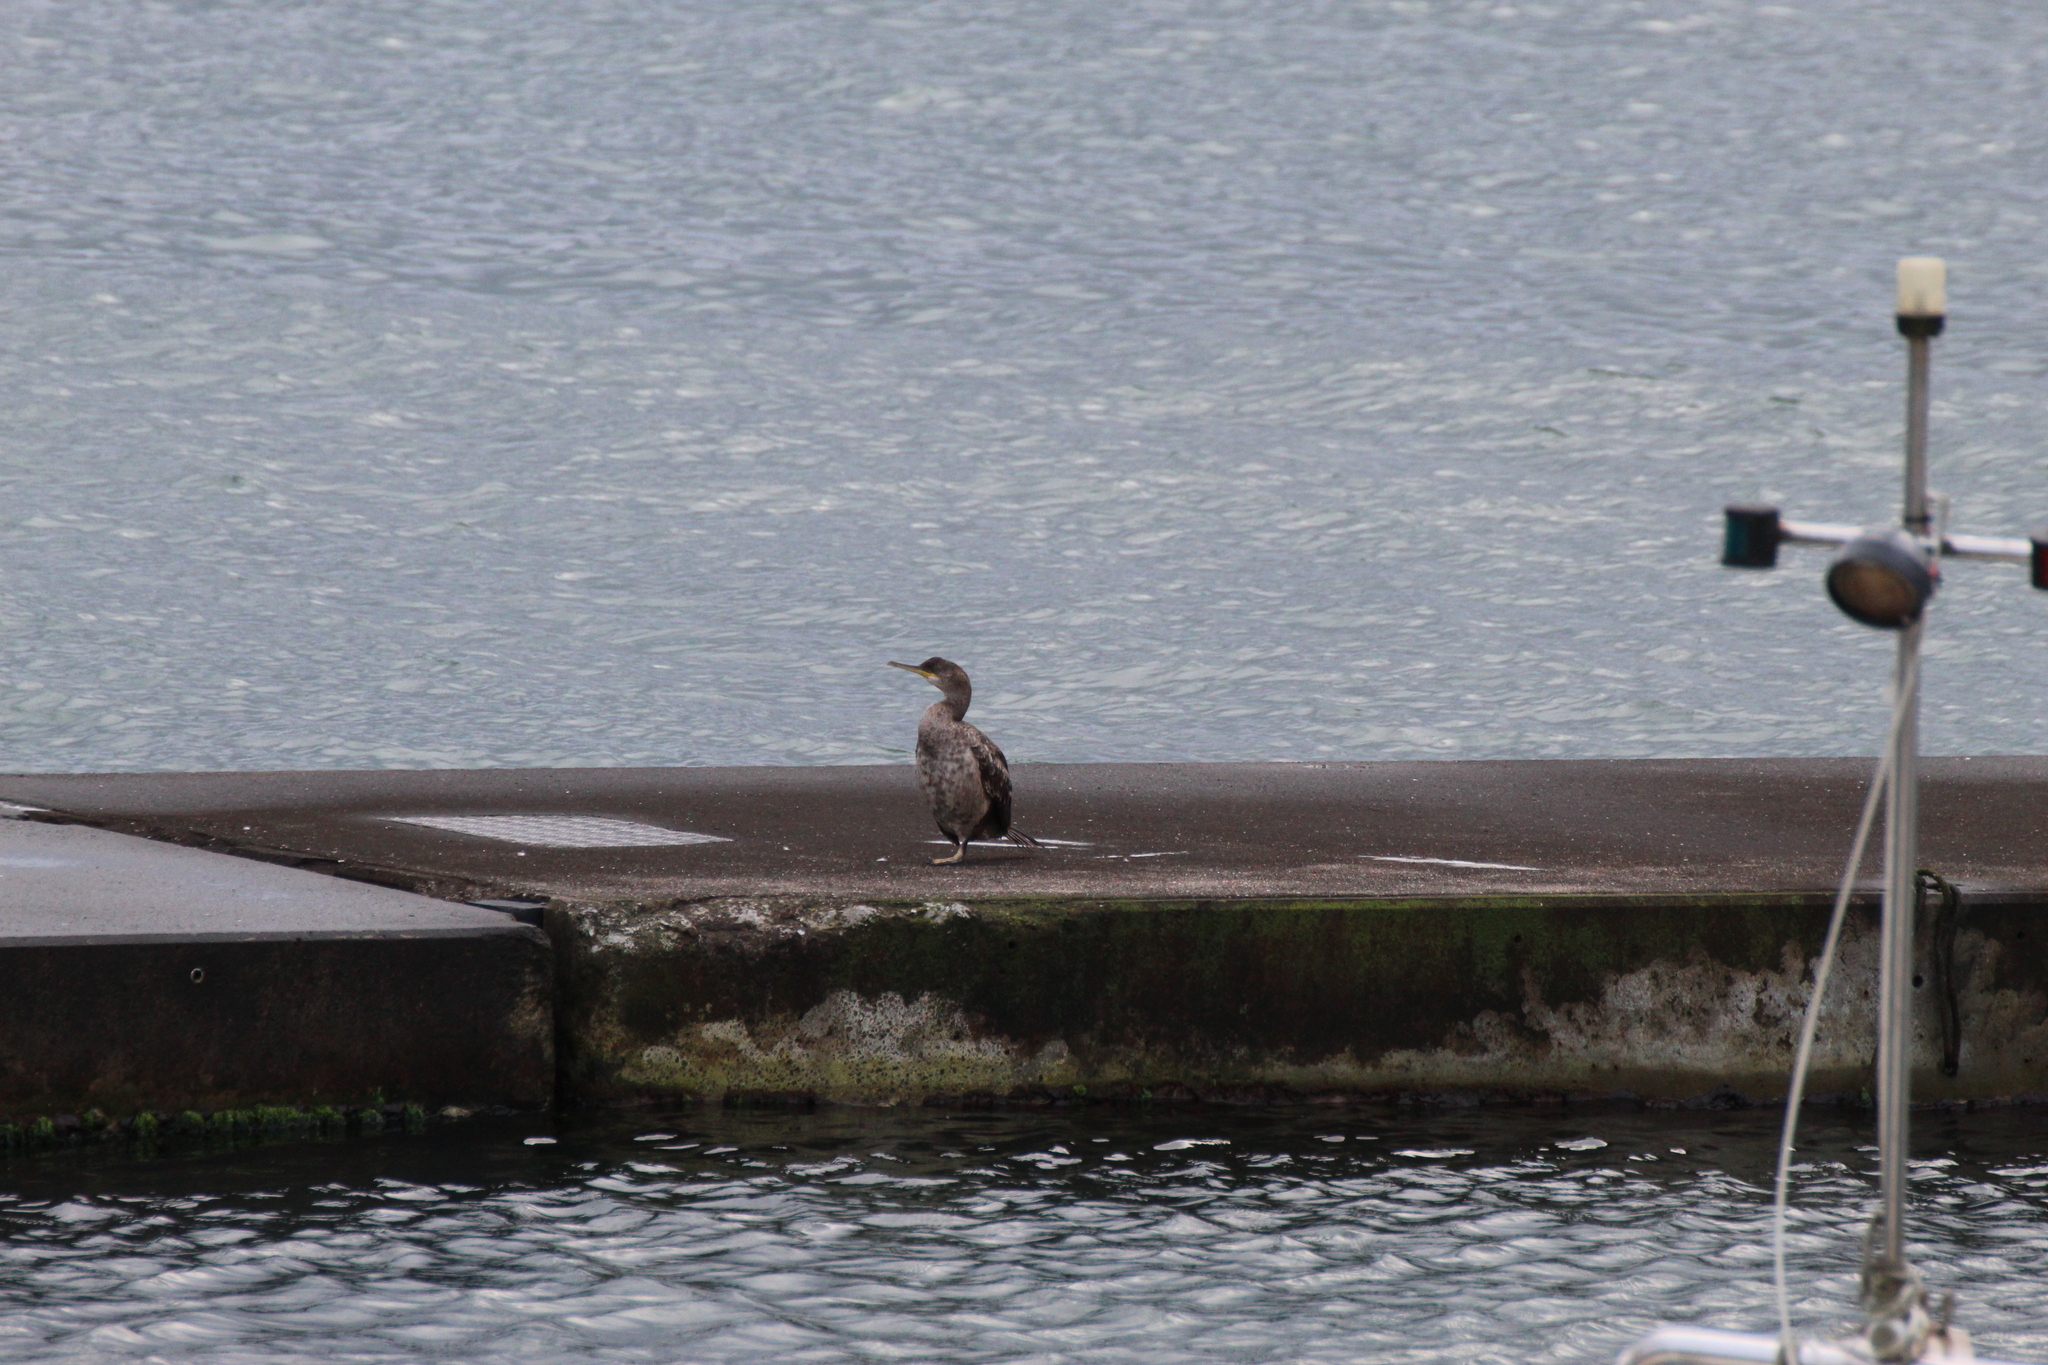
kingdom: Animalia
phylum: Chordata
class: Aves
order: Suliformes
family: Phalacrocoracidae
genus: Phalacrocorax
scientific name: Phalacrocorax aristotelis
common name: European shag
